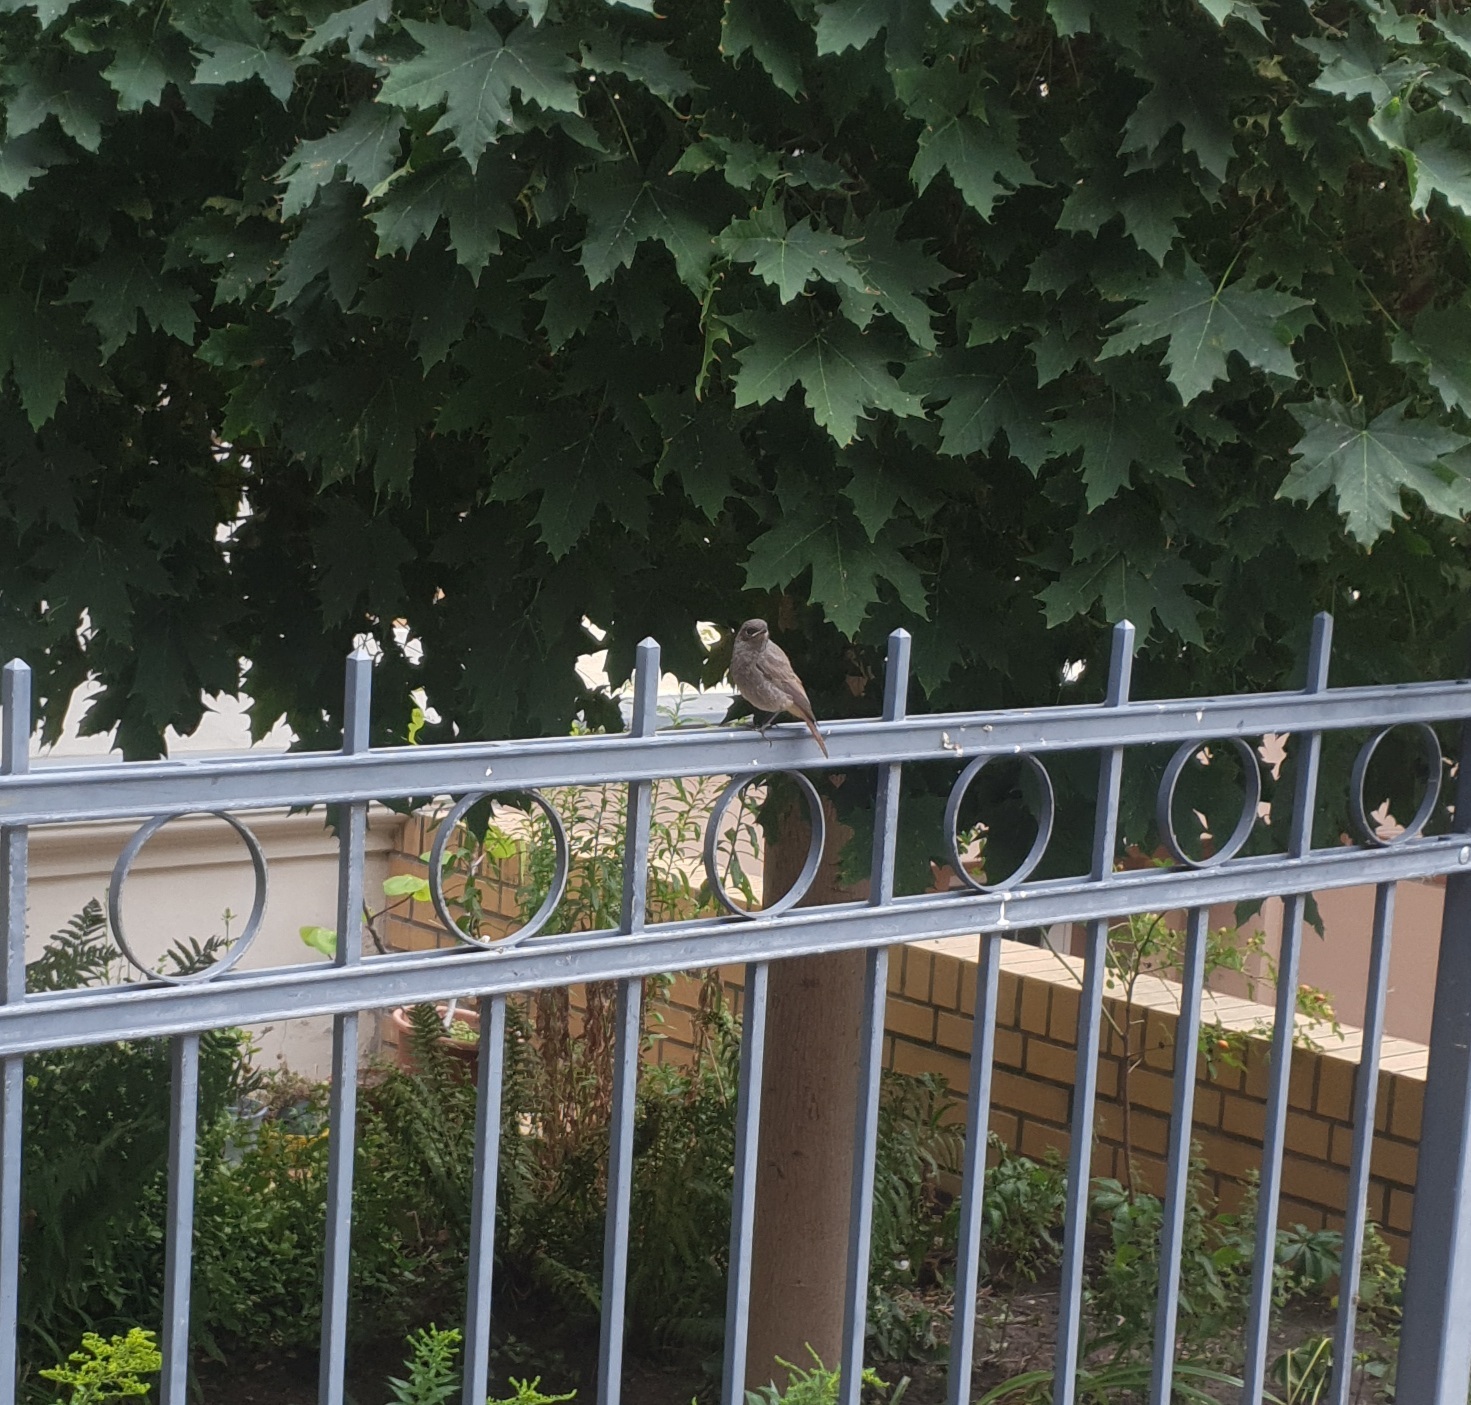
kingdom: Animalia
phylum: Chordata
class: Aves
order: Passeriformes
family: Muscicapidae
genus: Phoenicurus
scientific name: Phoenicurus ochruros
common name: Black redstart
